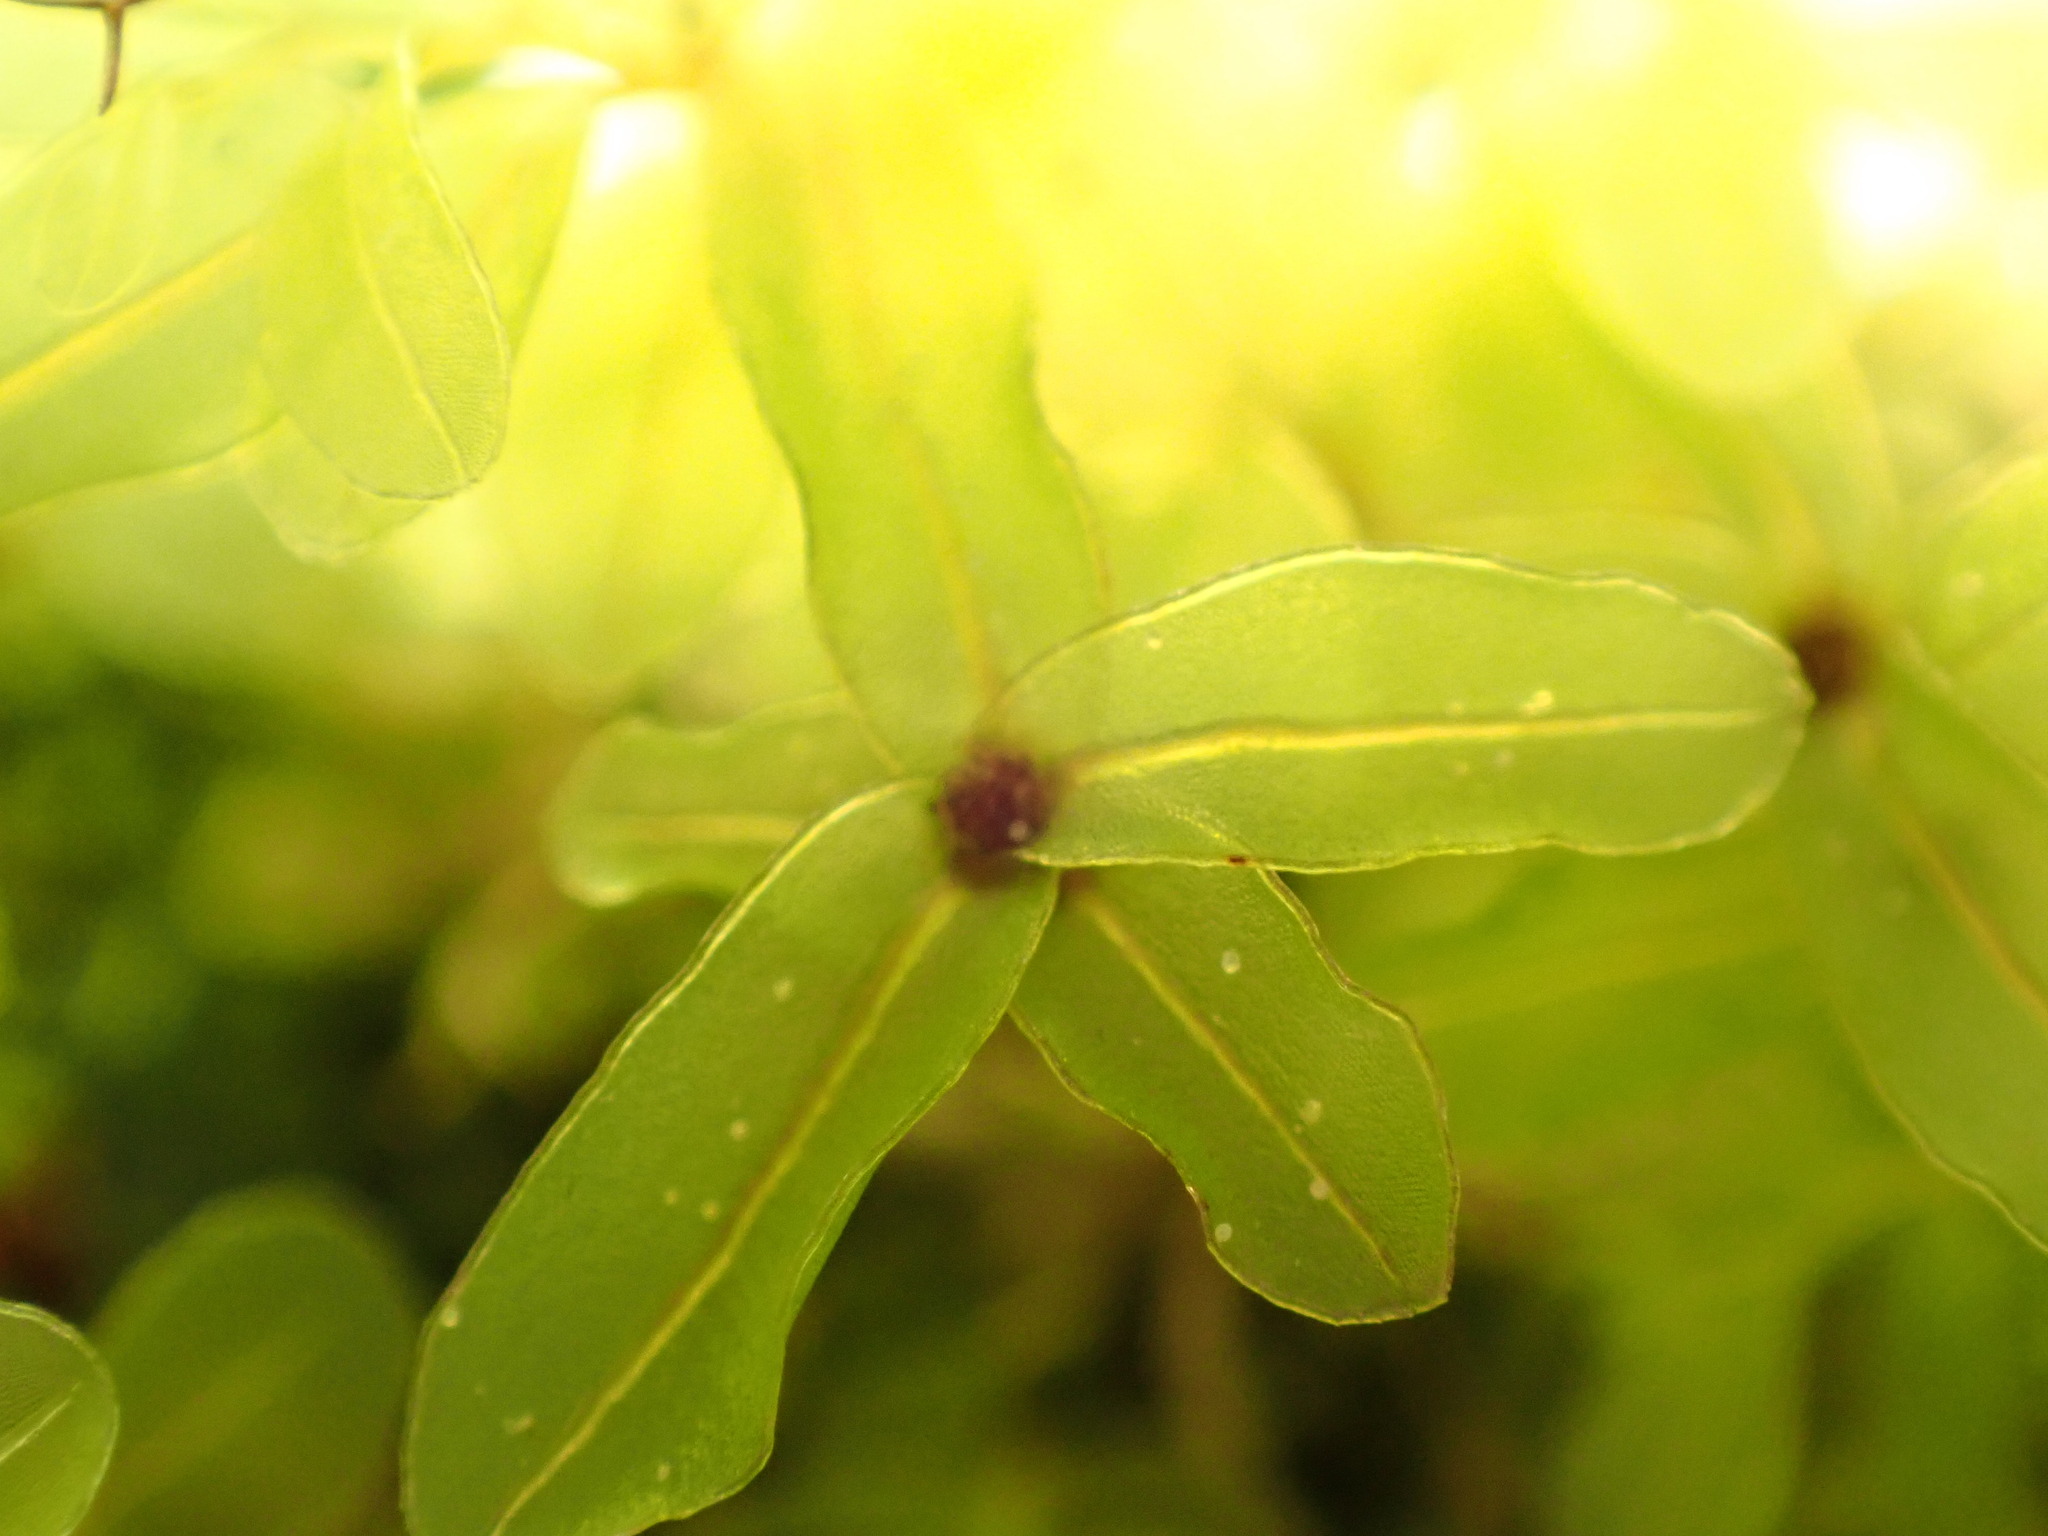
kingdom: Plantae
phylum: Bryophyta
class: Bryopsida
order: Bryales
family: Mniaceae
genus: Rhizomnium
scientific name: Rhizomnium glabrescens
